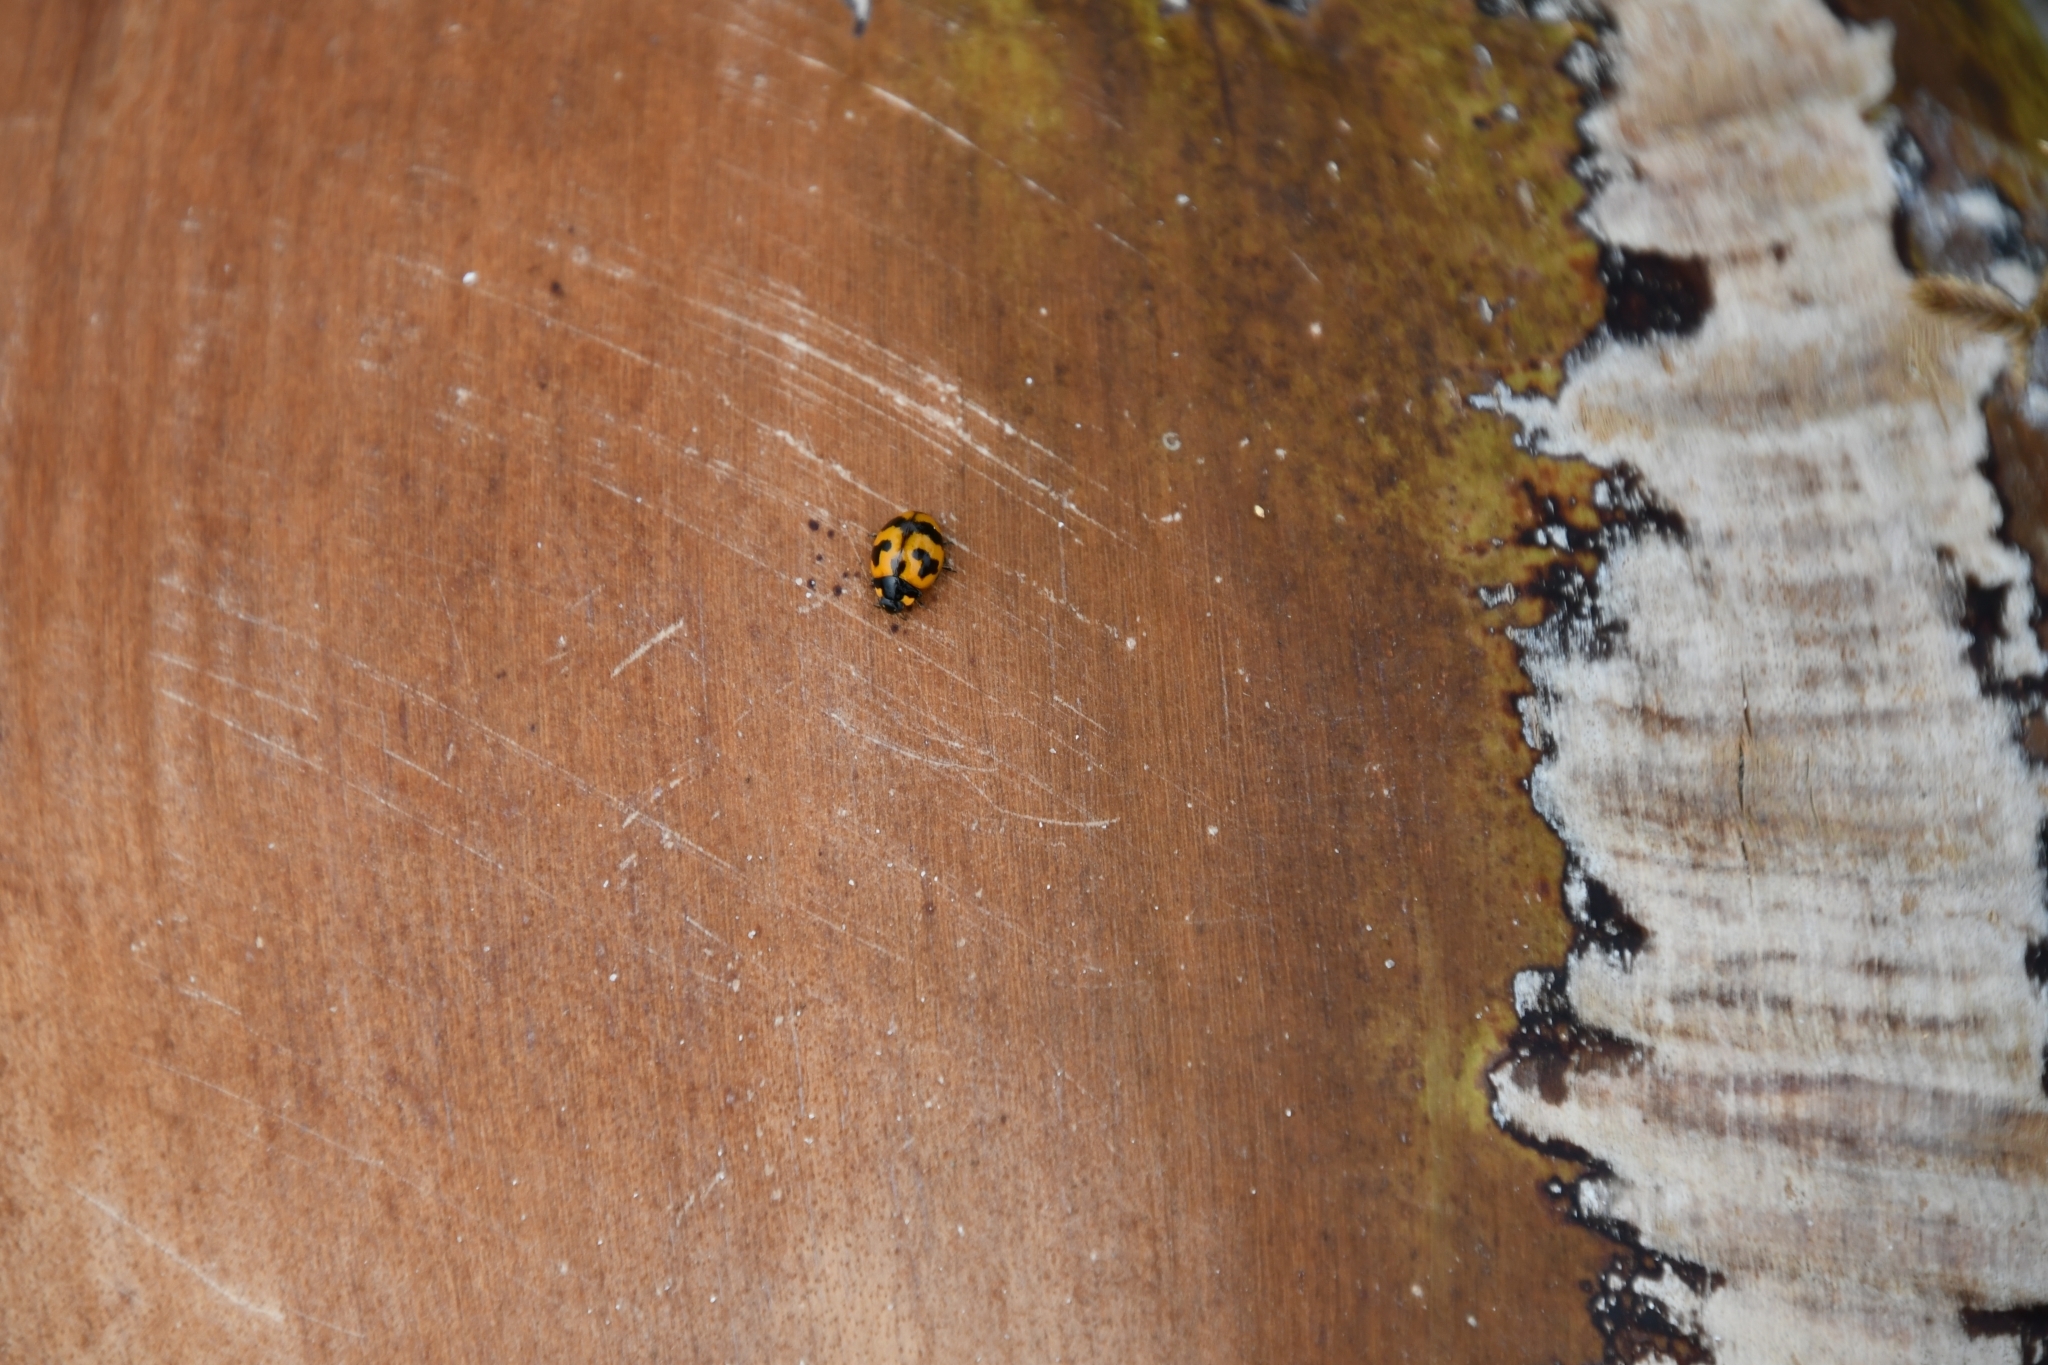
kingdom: Animalia
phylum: Arthropoda
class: Insecta
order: Coleoptera
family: Coccinellidae
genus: Coccinella
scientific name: Coccinella transversalis
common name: Transverse lady beetle
